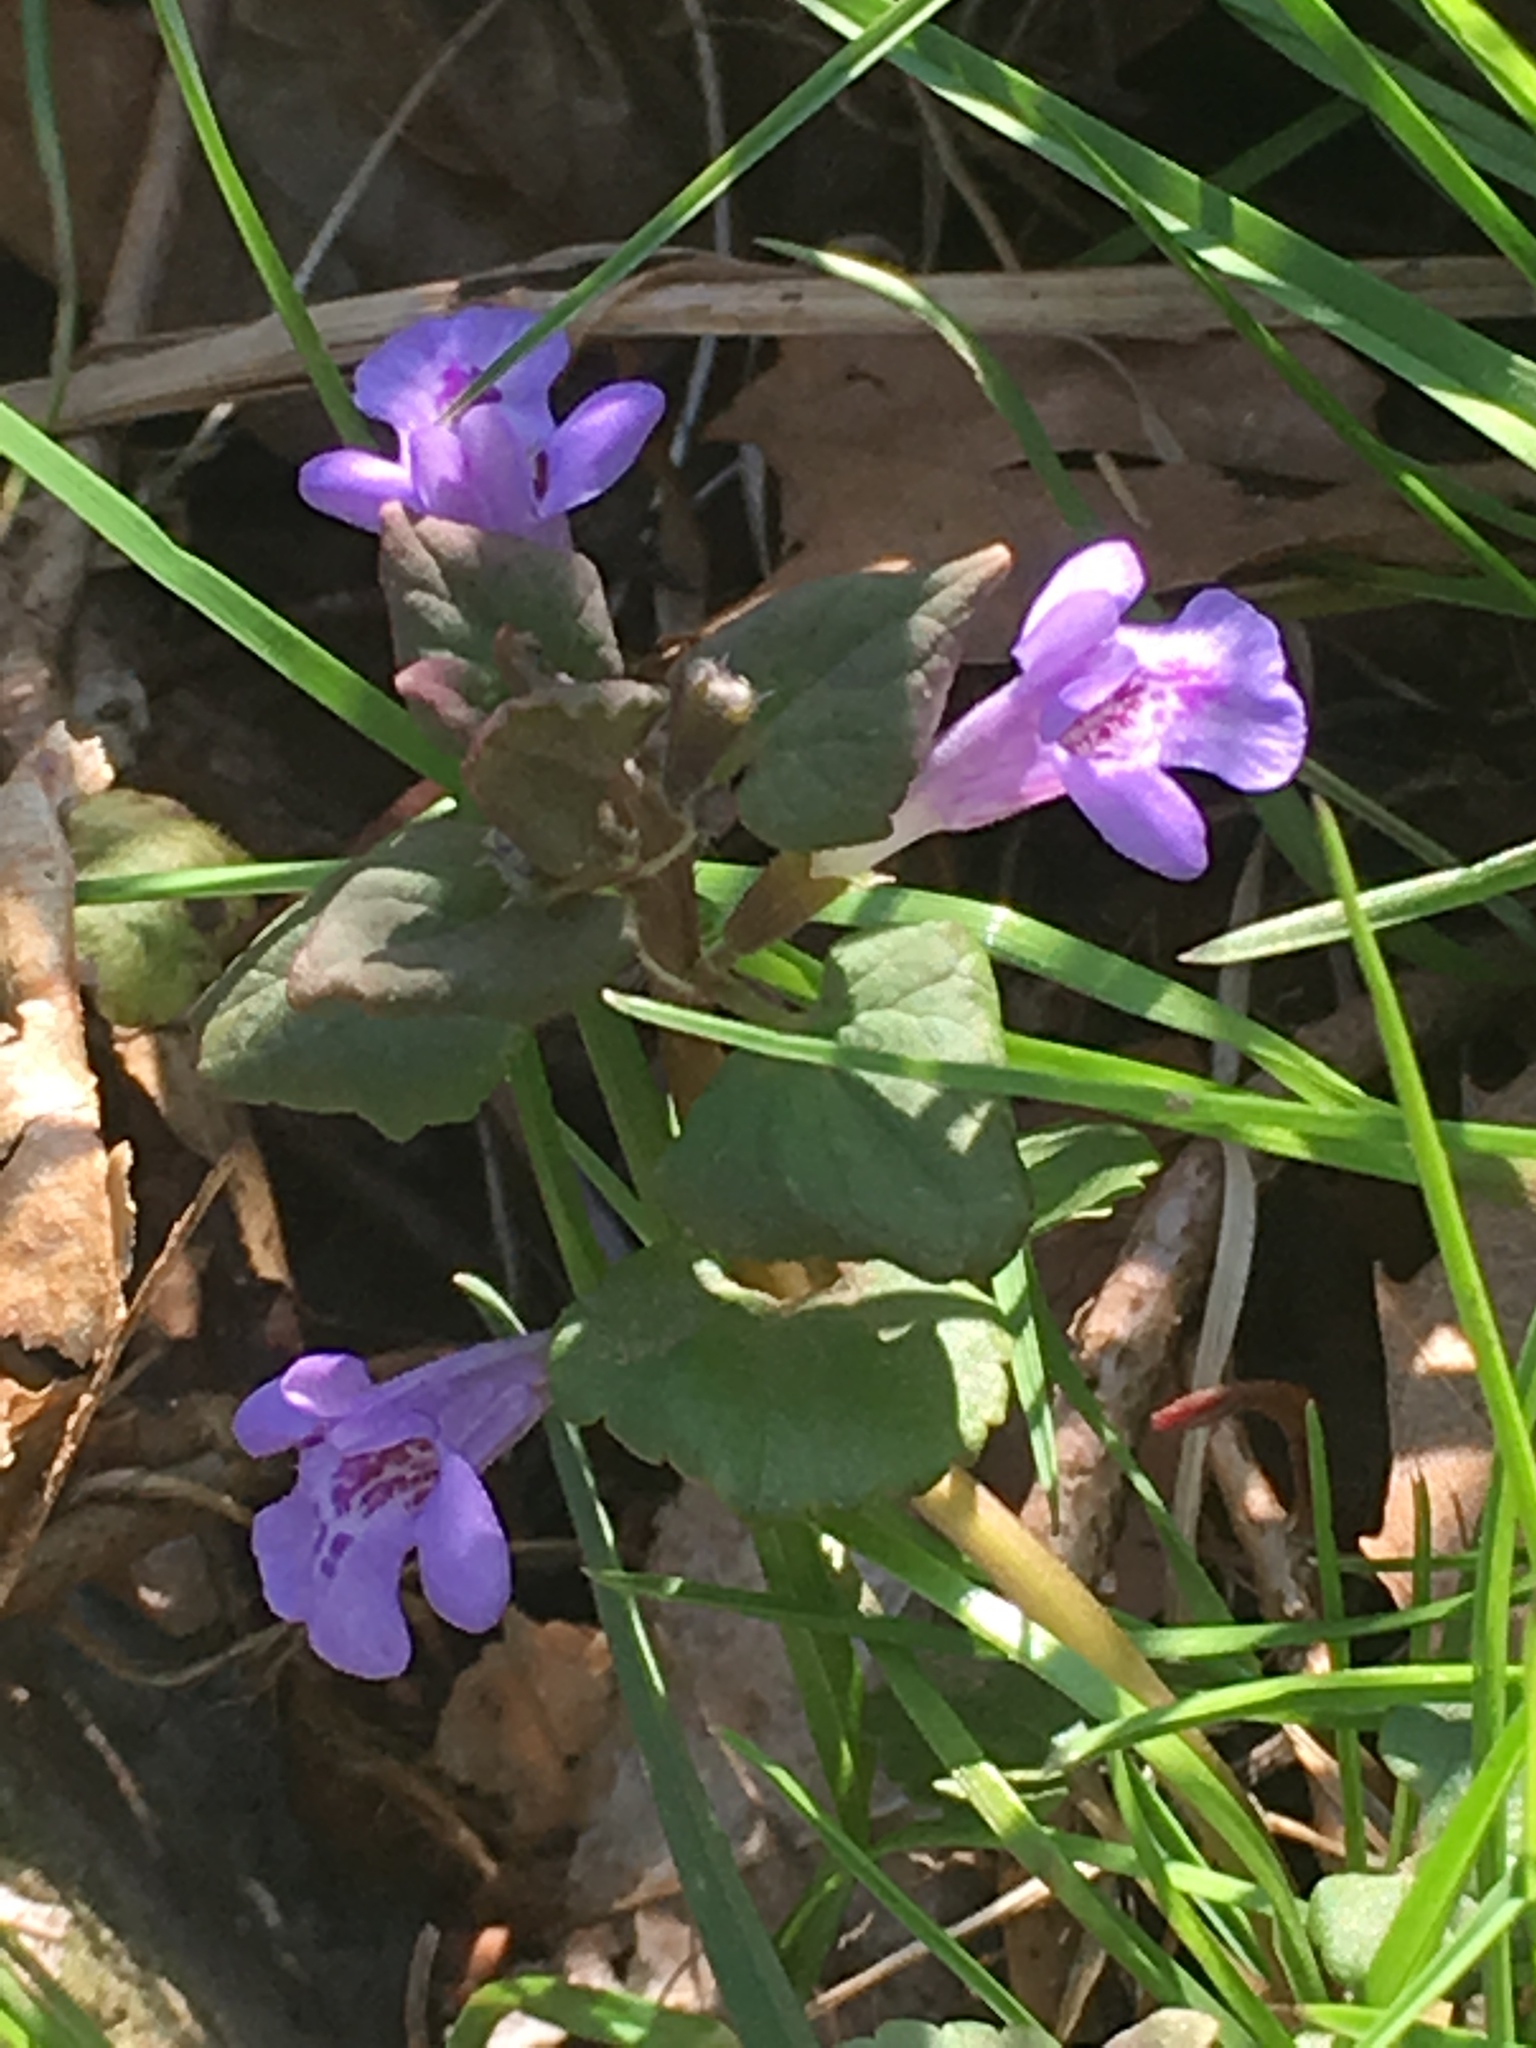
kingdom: Plantae
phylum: Tracheophyta
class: Magnoliopsida
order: Lamiales
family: Lamiaceae
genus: Glechoma
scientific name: Glechoma hederacea
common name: Ground ivy
